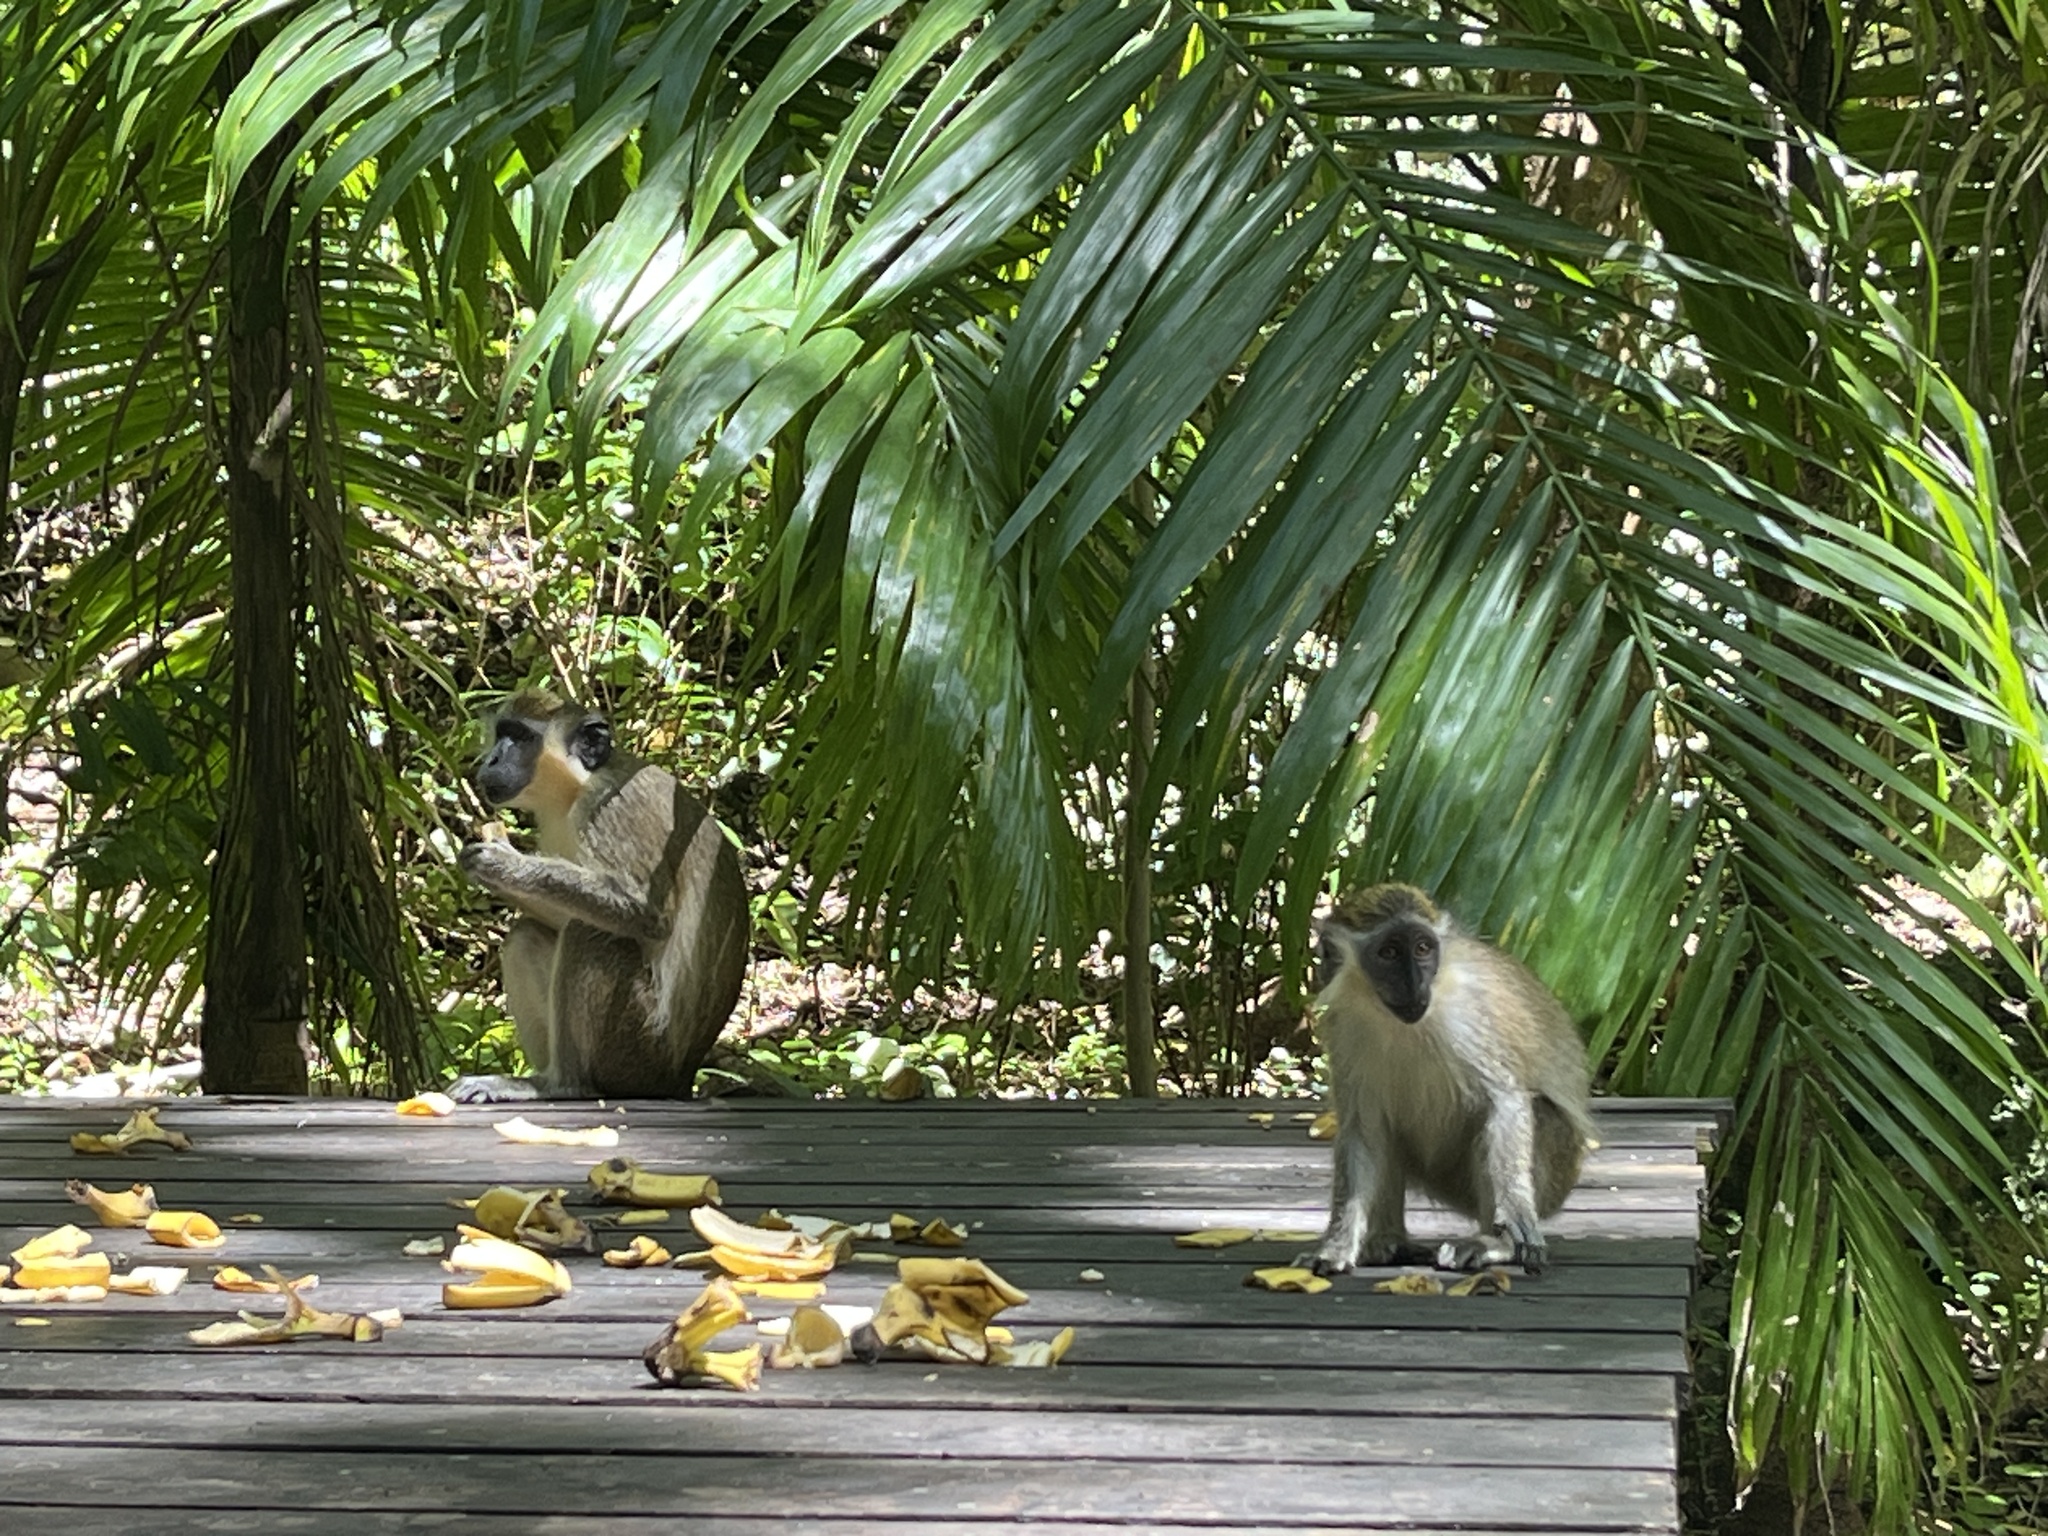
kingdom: Animalia
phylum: Chordata
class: Mammalia
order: Primates
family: Cercopithecidae
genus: Chlorocebus
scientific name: Chlorocebus sabaeus
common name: Green monkey
